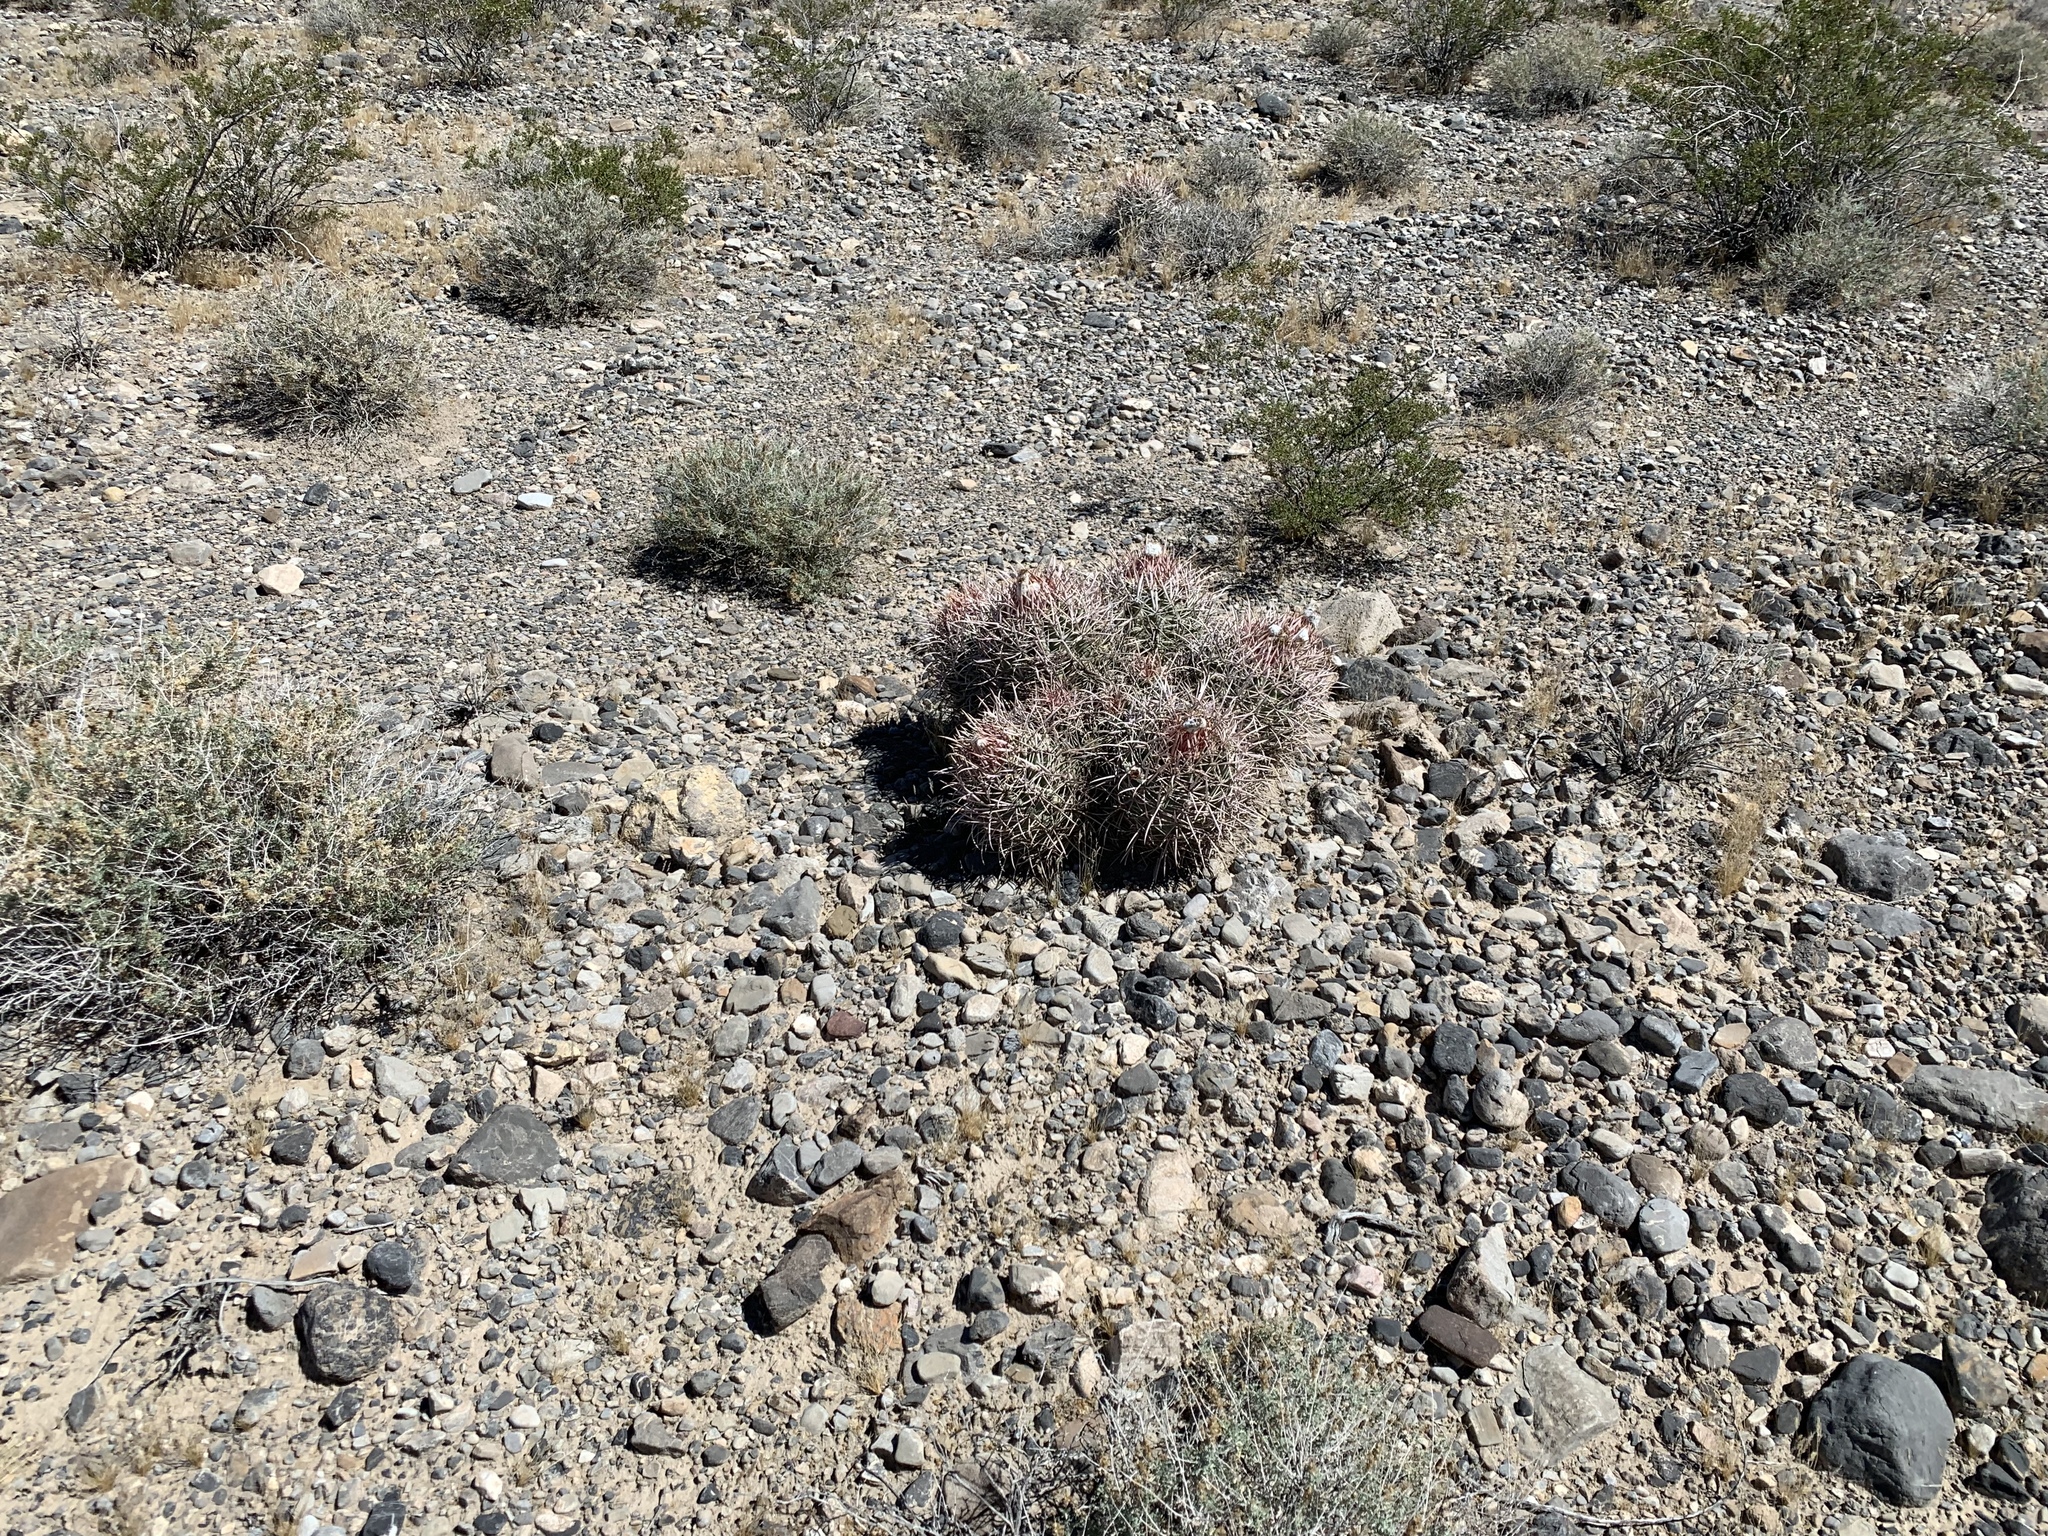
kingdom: Plantae
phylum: Tracheophyta
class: Magnoliopsida
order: Caryophyllales
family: Cactaceae
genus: Echinocactus
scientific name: Echinocactus polycephalus
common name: Cottontop cactus
